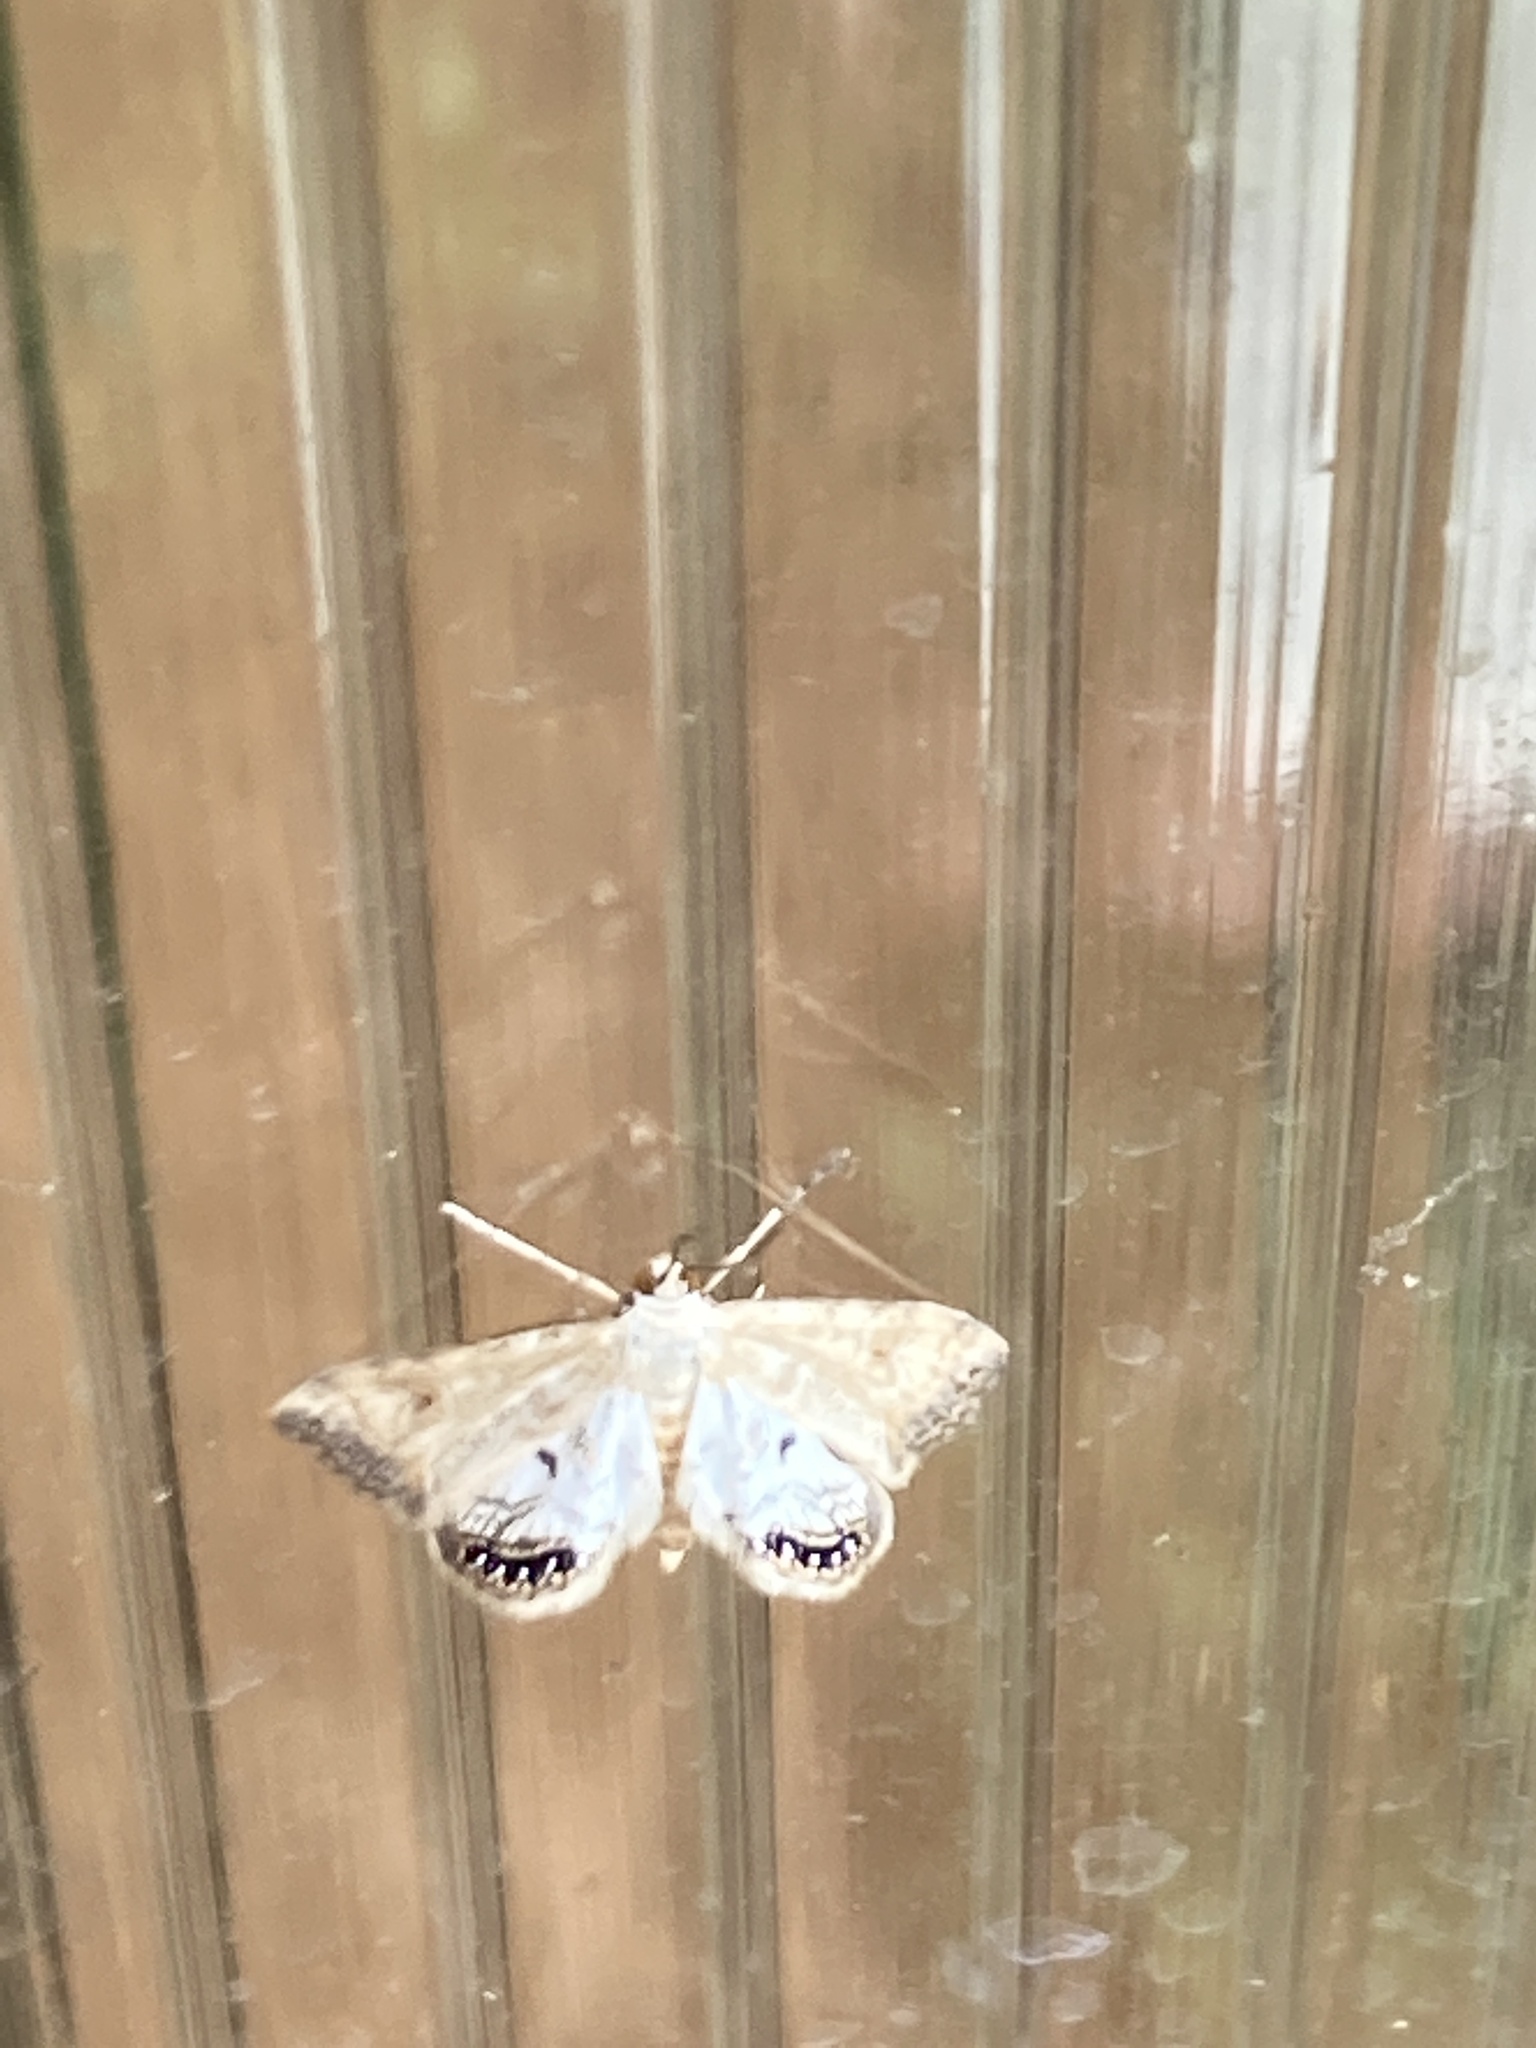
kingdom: Animalia
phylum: Arthropoda
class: Insecta
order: Lepidoptera
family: Crambidae
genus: Cataclysta
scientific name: Cataclysta lemnata
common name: Small china-mark
